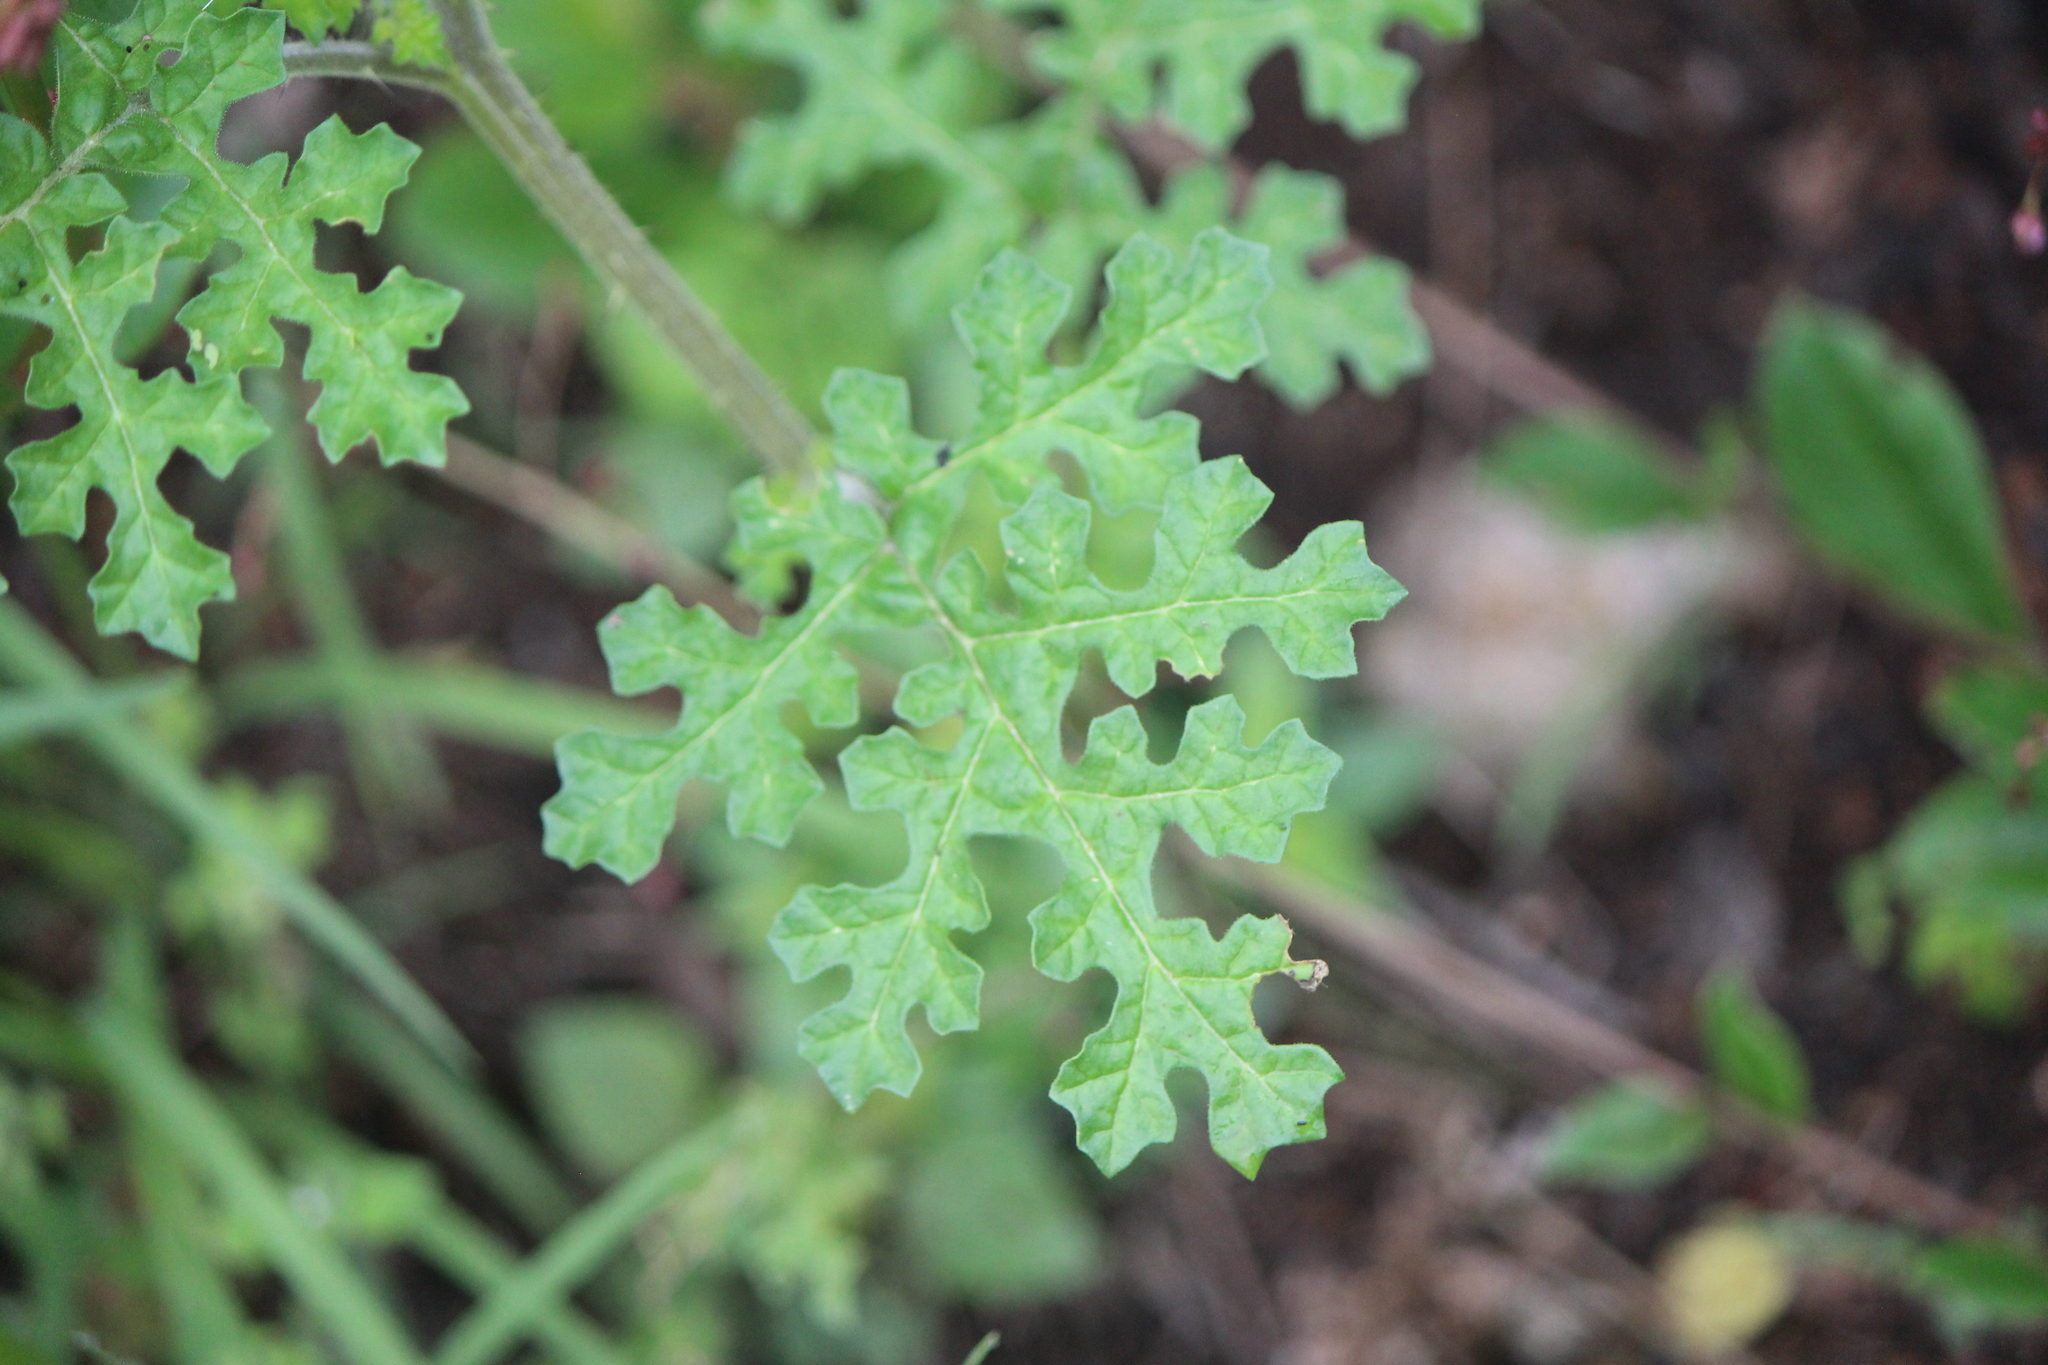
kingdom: Plantae
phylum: Tracheophyta
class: Magnoliopsida
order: Solanales
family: Solanaceae
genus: Solanum
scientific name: Solanum heterodoxum
